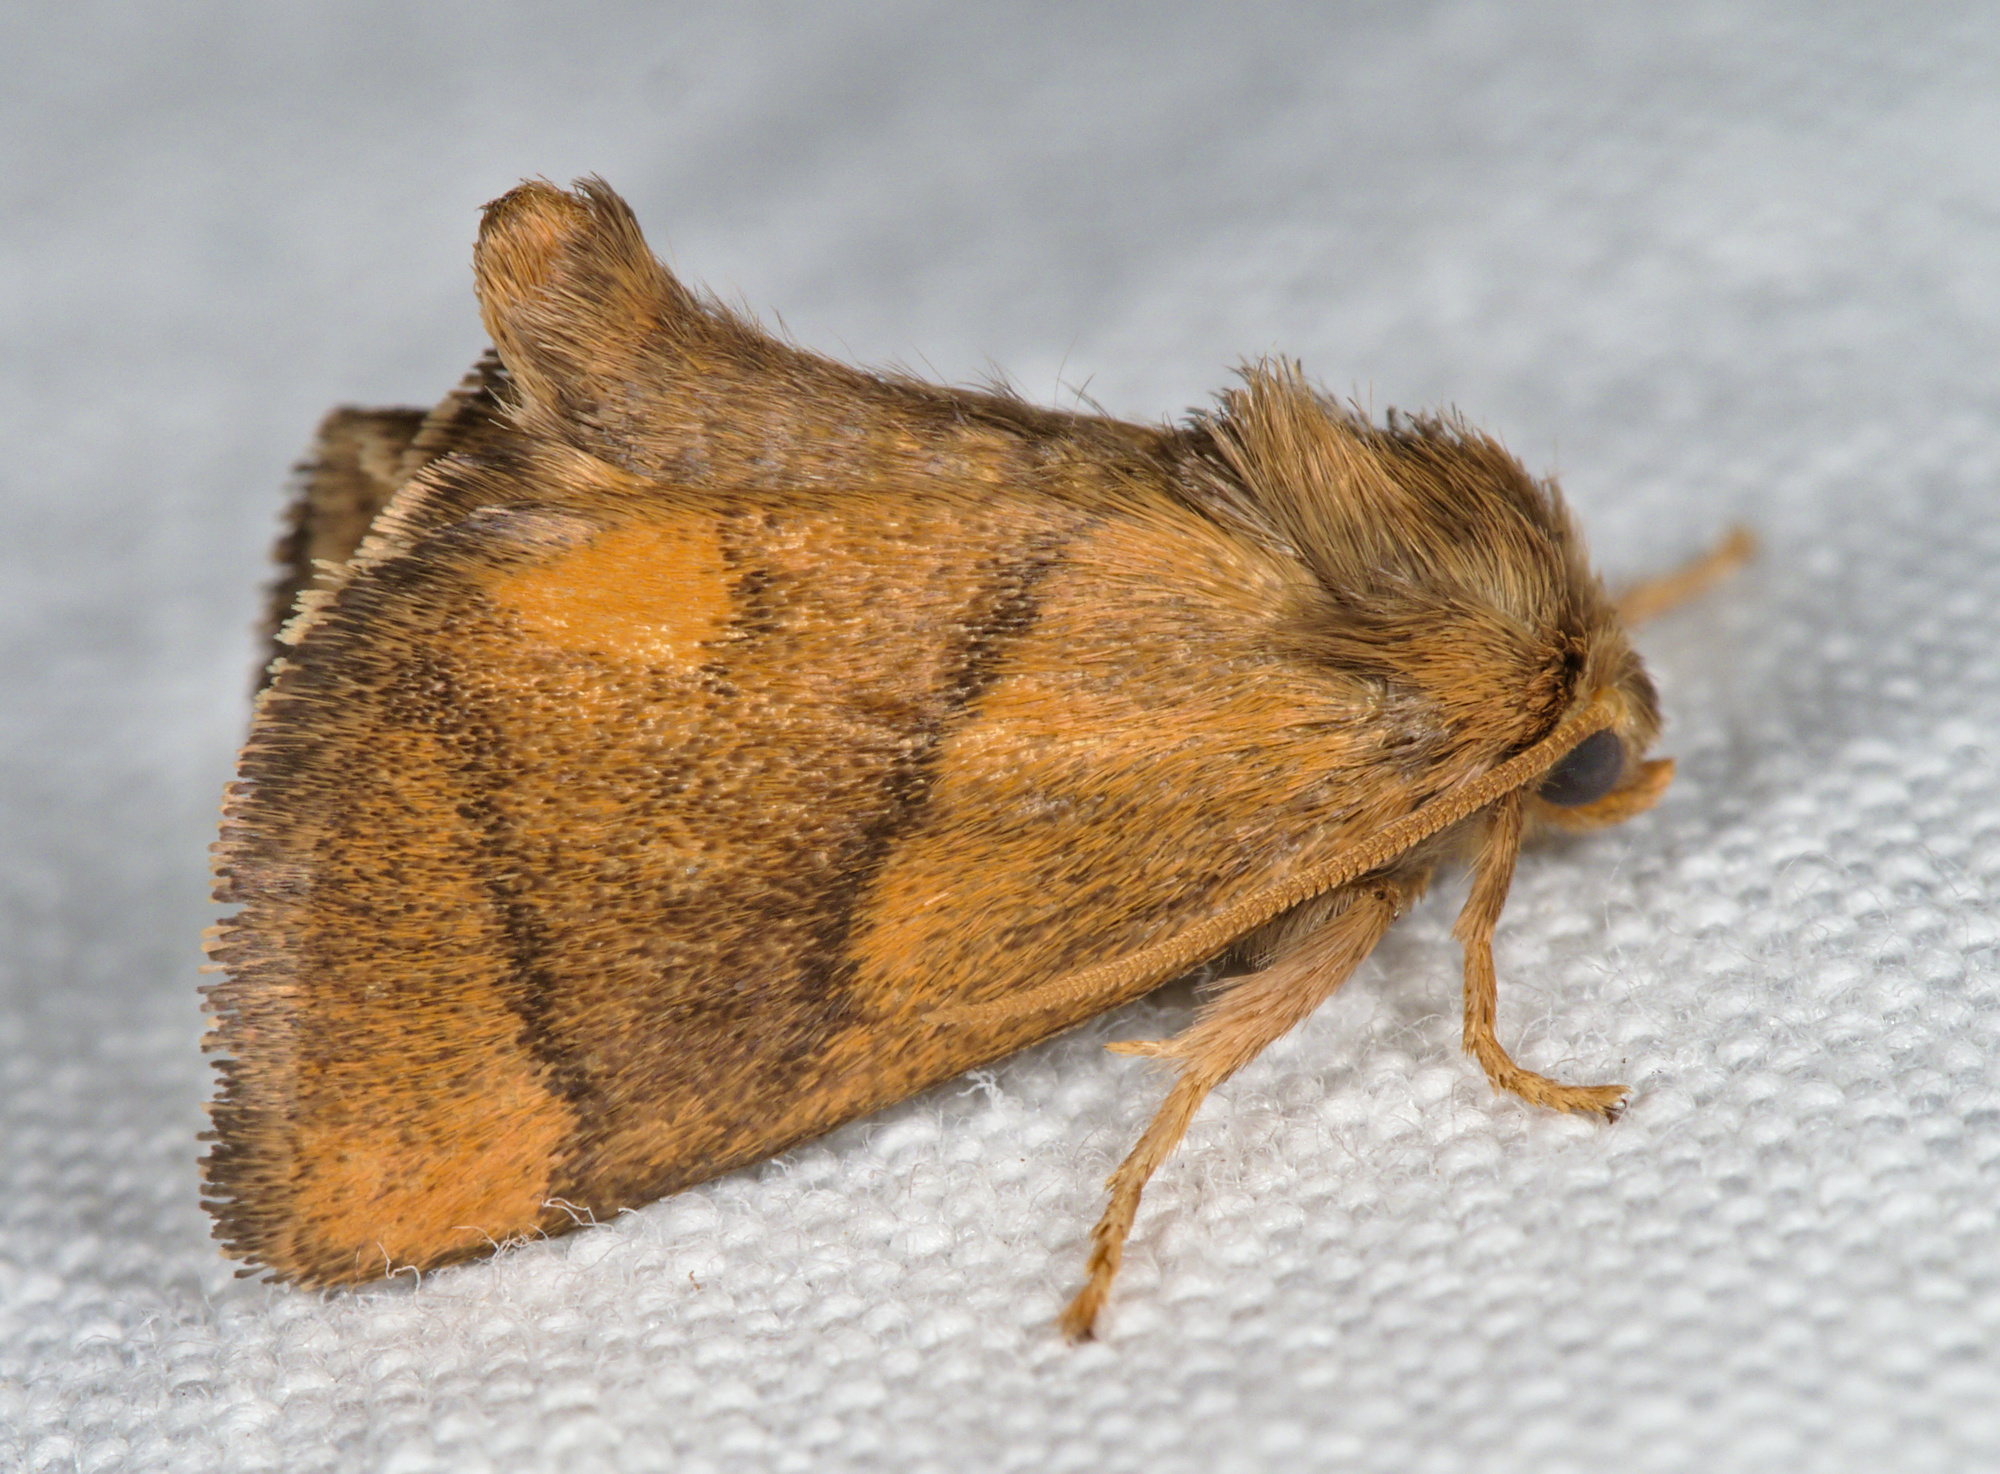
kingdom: Animalia
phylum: Arthropoda
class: Insecta
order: Lepidoptera
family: Limacodidae
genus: Apoda
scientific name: Apoda limacodes
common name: Festoon
